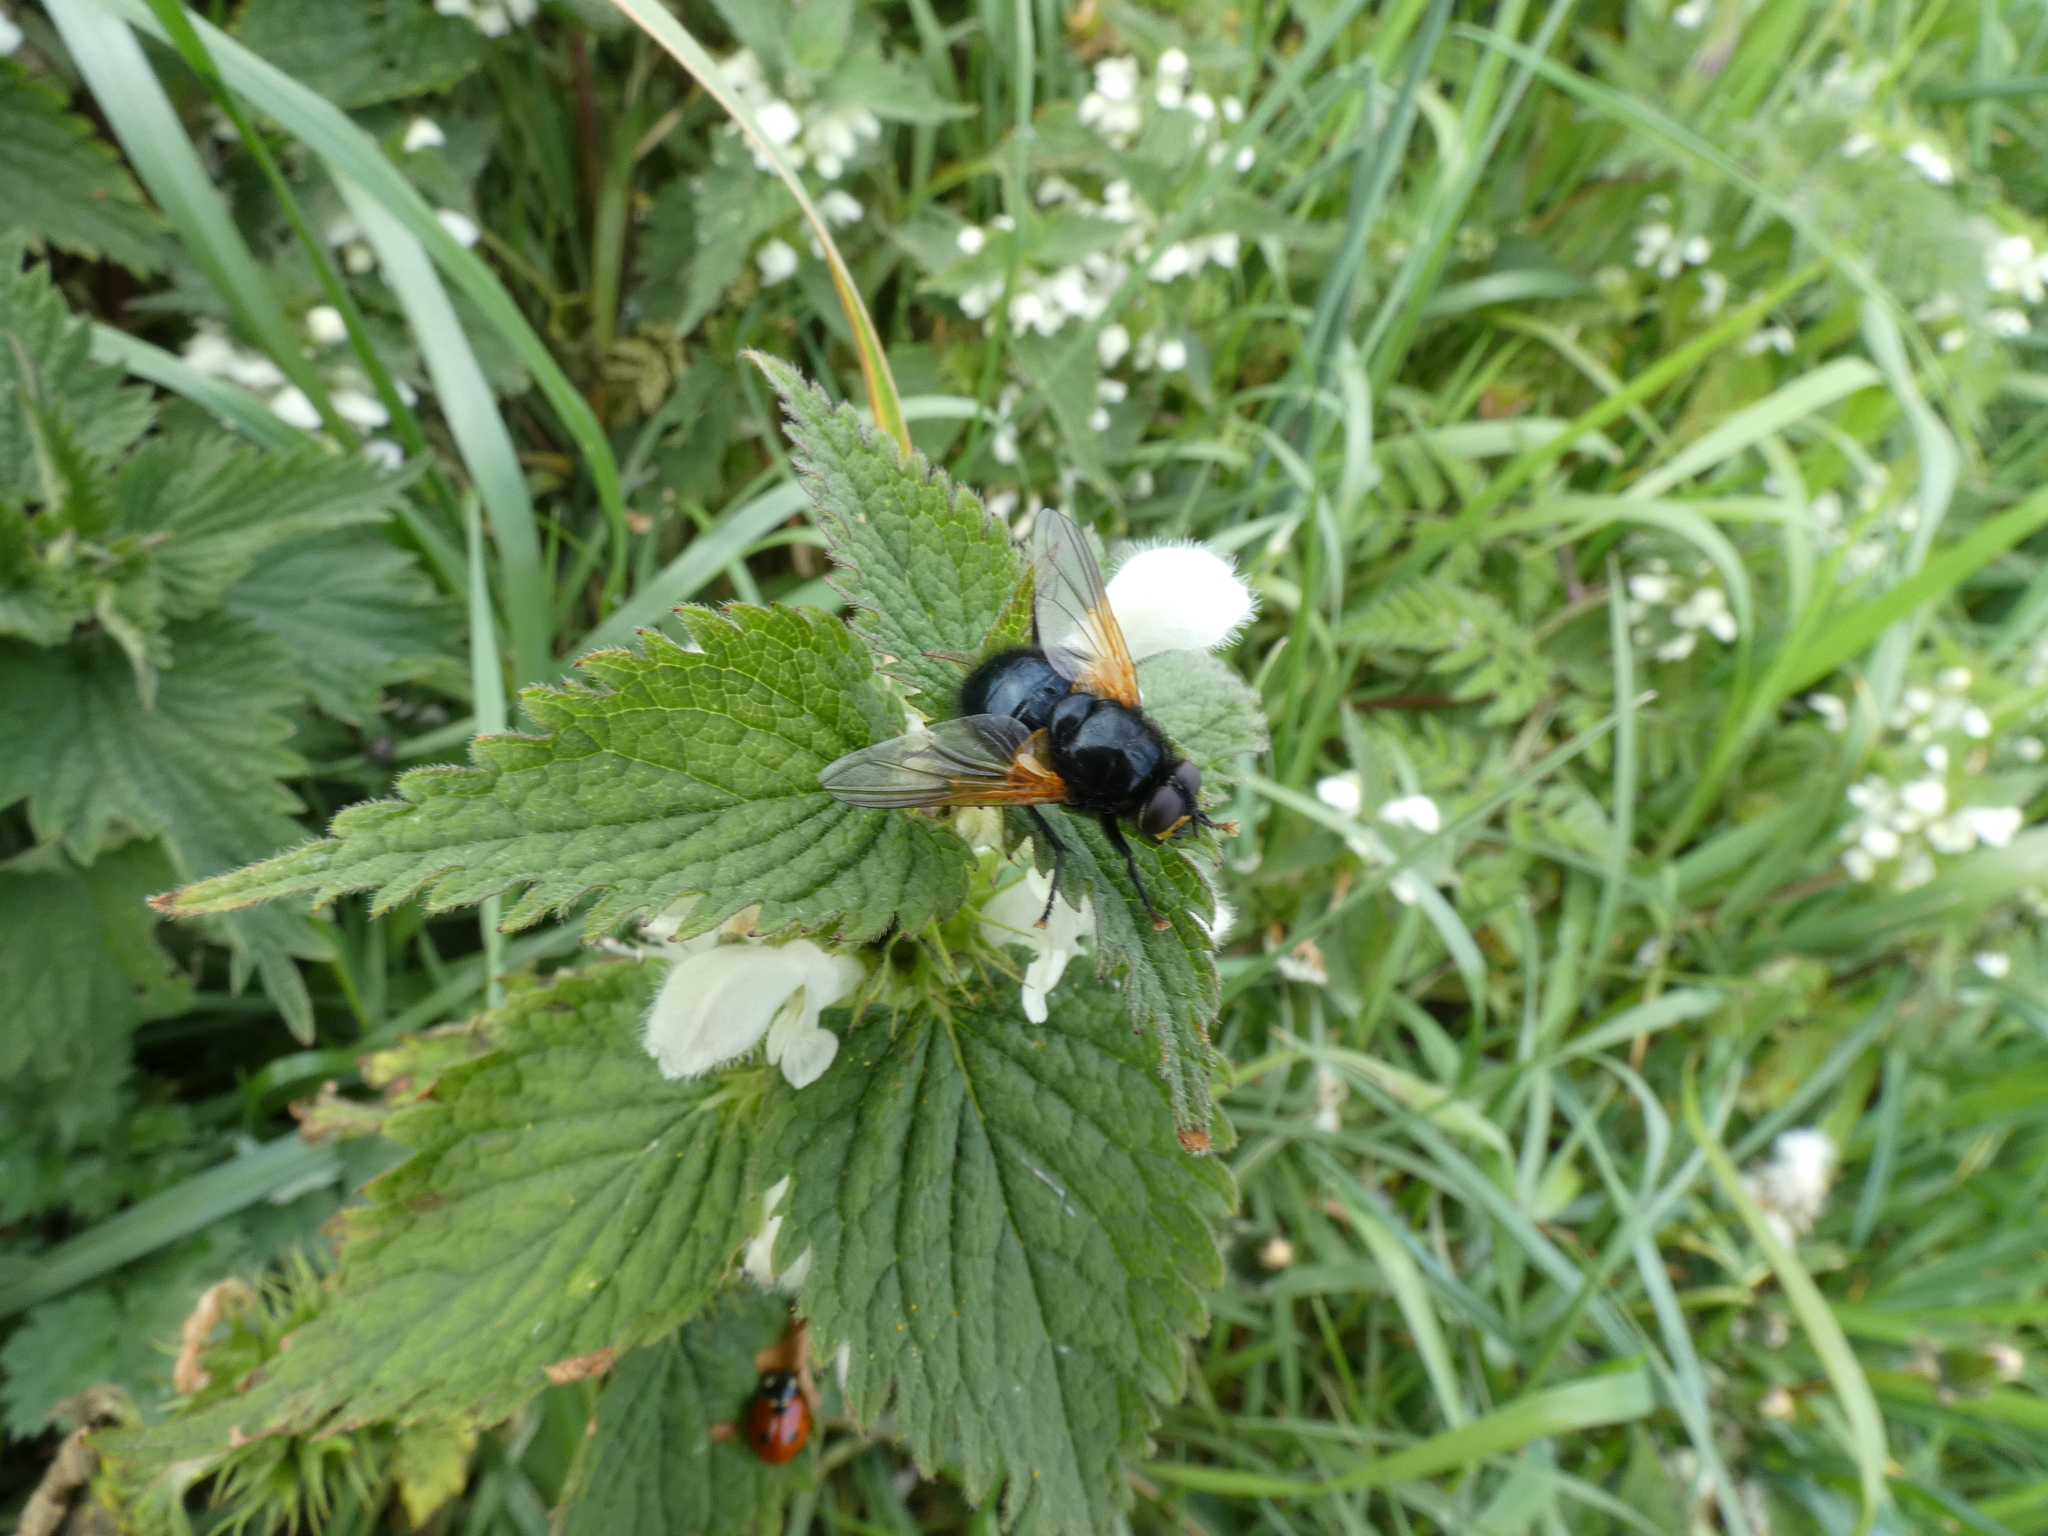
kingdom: Animalia
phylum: Arthropoda
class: Insecta
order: Diptera
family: Muscidae
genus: Mesembrina
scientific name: Mesembrina meridiana
